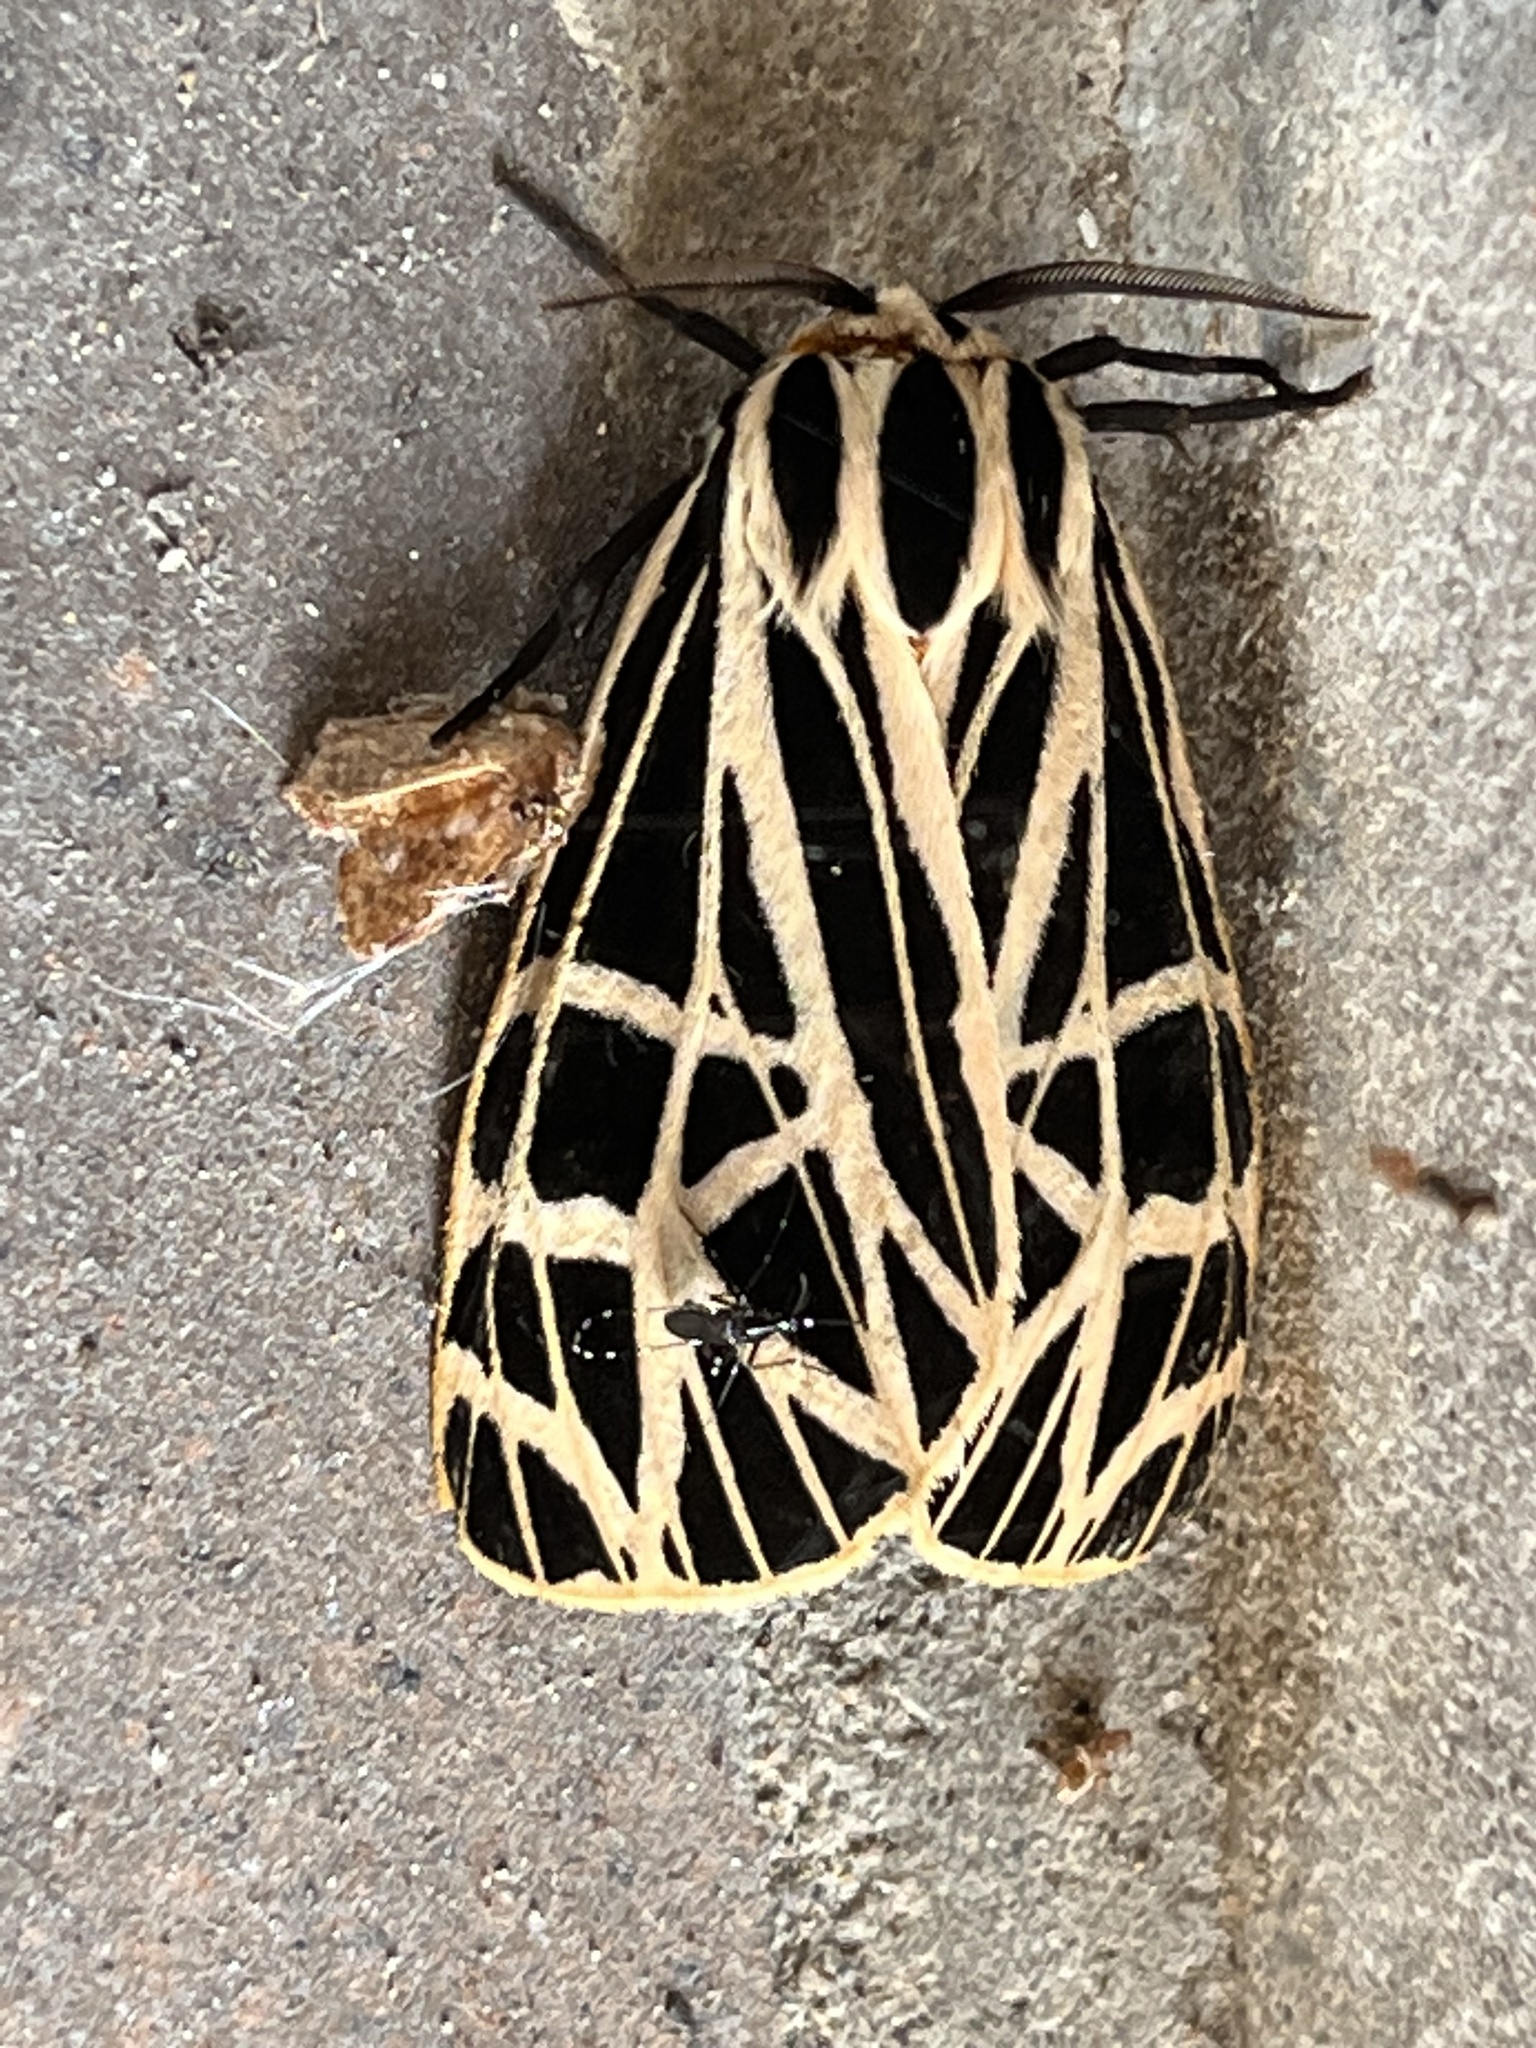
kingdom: Animalia
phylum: Arthropoda
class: Insecta
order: Lepidoptera
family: Erebidae
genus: Grammia
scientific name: Grammia virgo
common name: Virgin tiger moth
